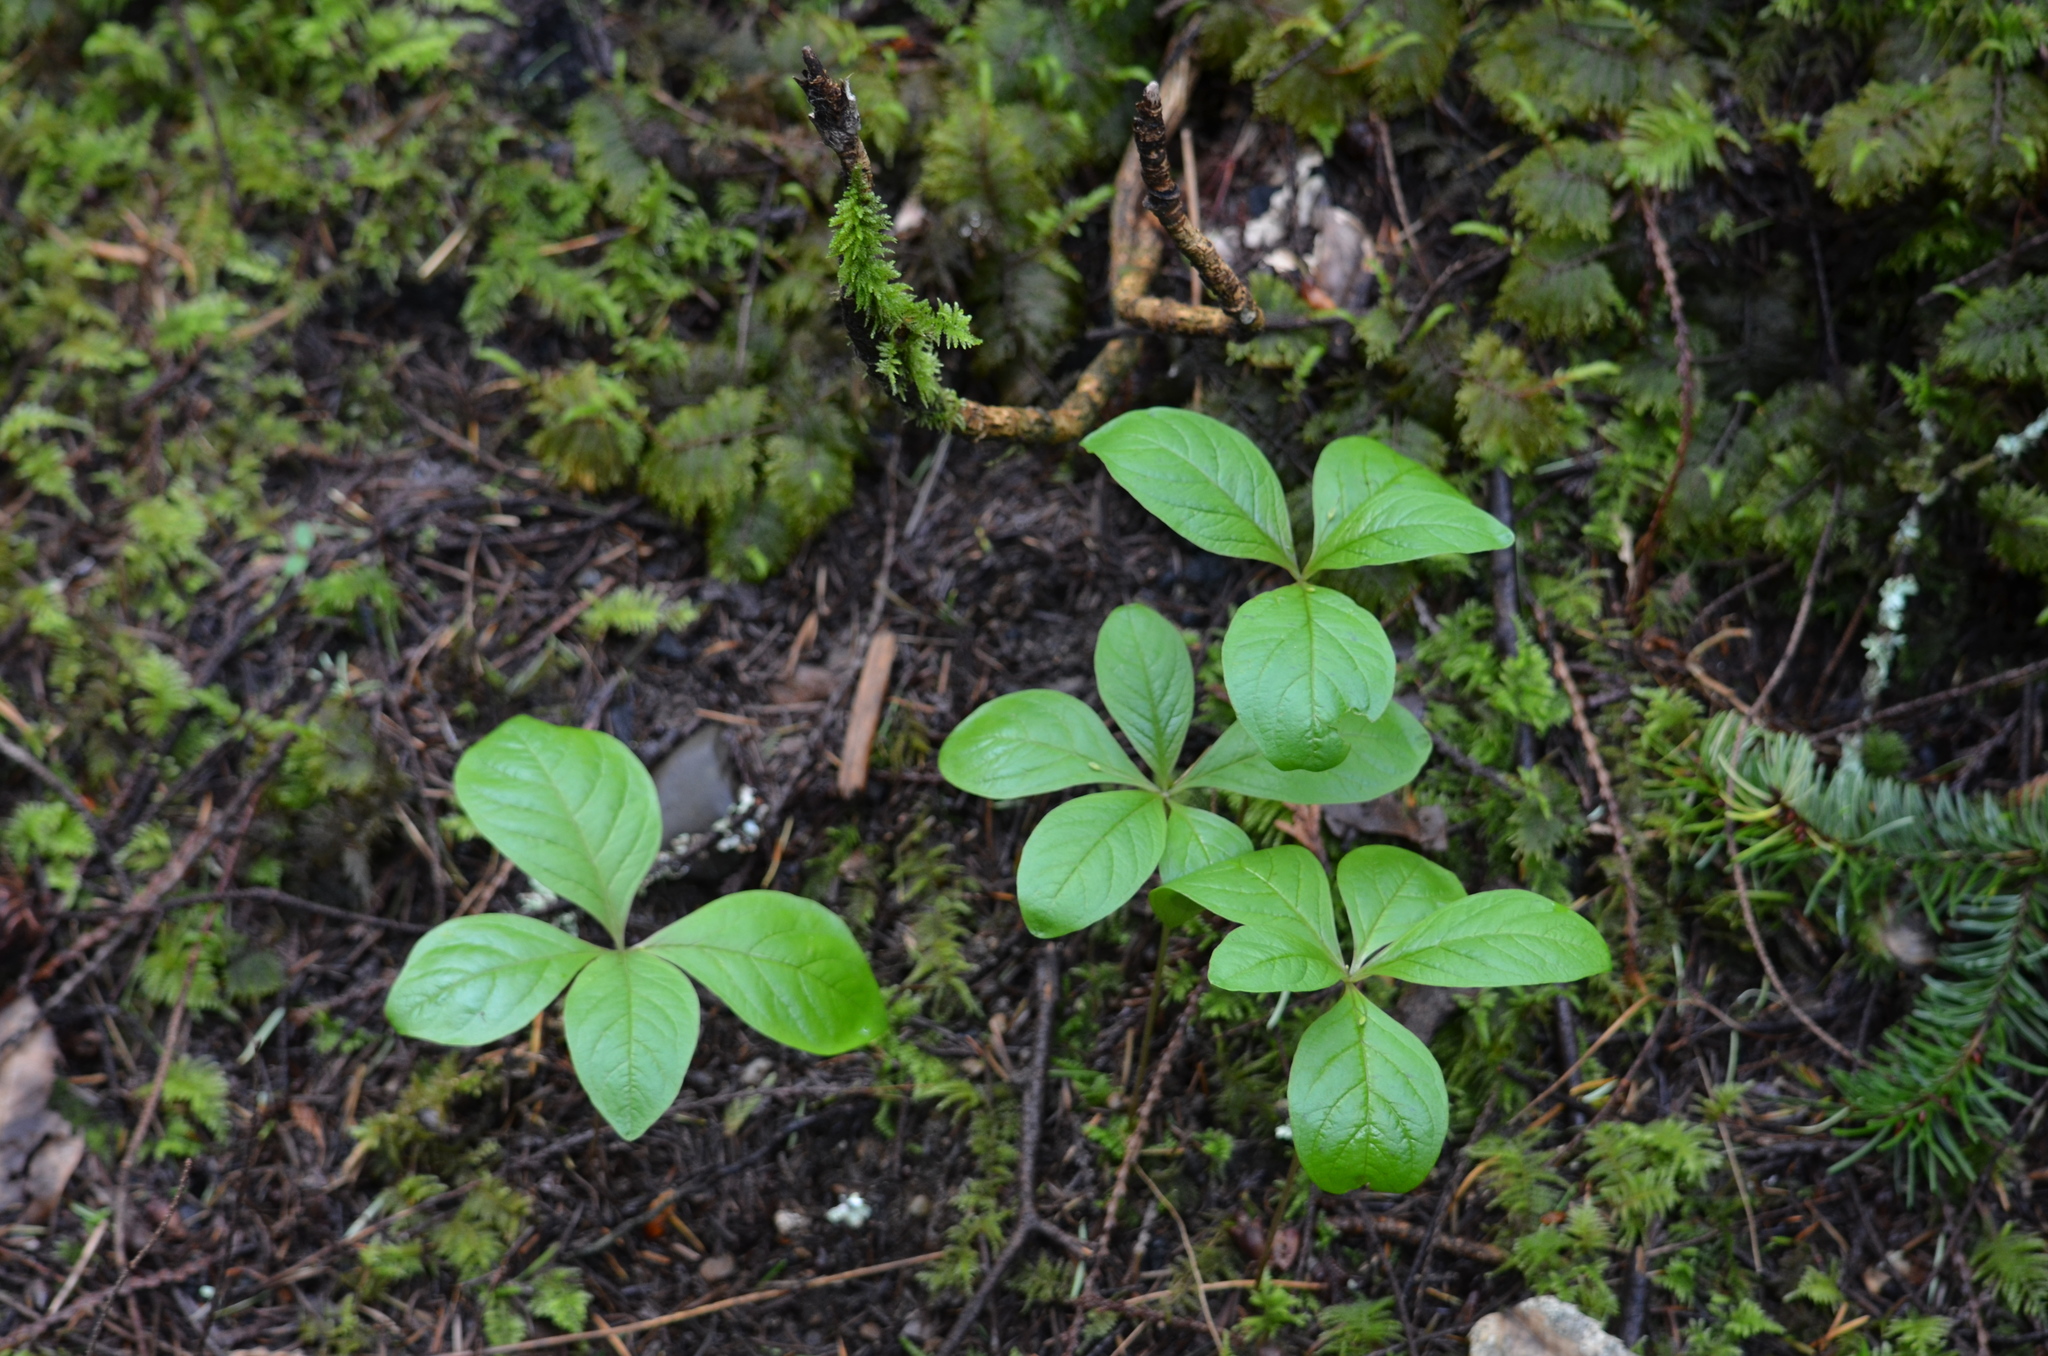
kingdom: Plantae
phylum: Tracheophyta
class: Magnoliopsida
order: Ericales
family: Primulaceae
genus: Lysimachia
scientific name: Lysimachia latifolia
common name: Pacific starflower
